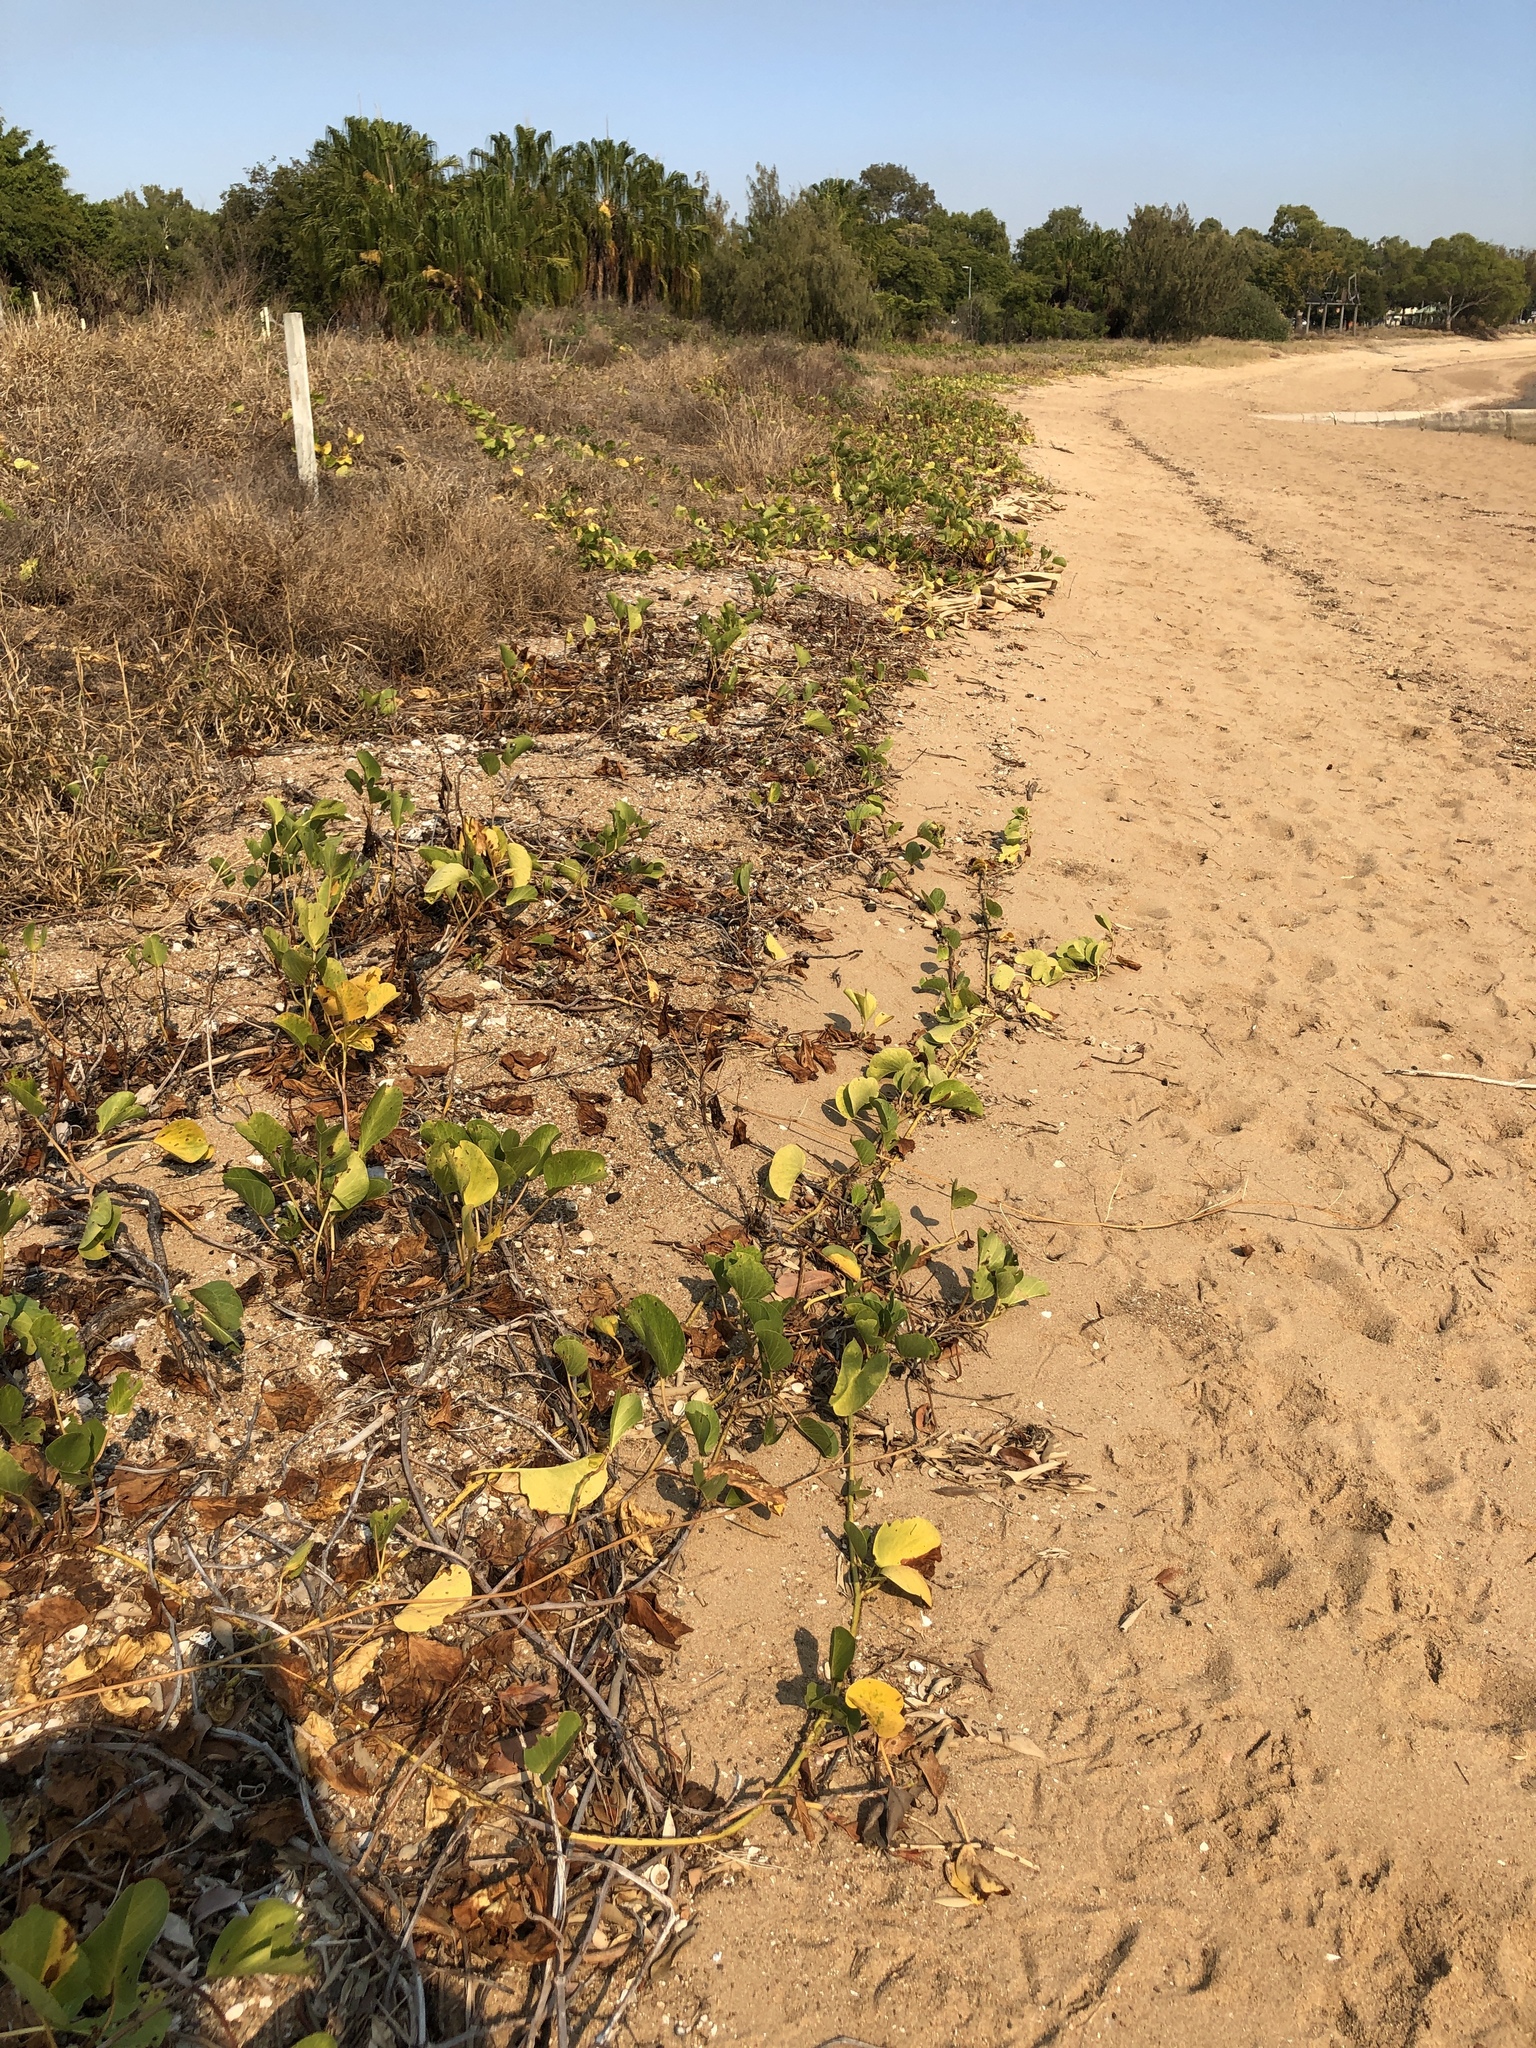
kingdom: Plantae
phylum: Tracheophyta
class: Magnoliopsida
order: Solanales
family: Convolvulaceae
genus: Ipomoea
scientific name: Ipomoea pes-caprae
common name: Beach morning glory
